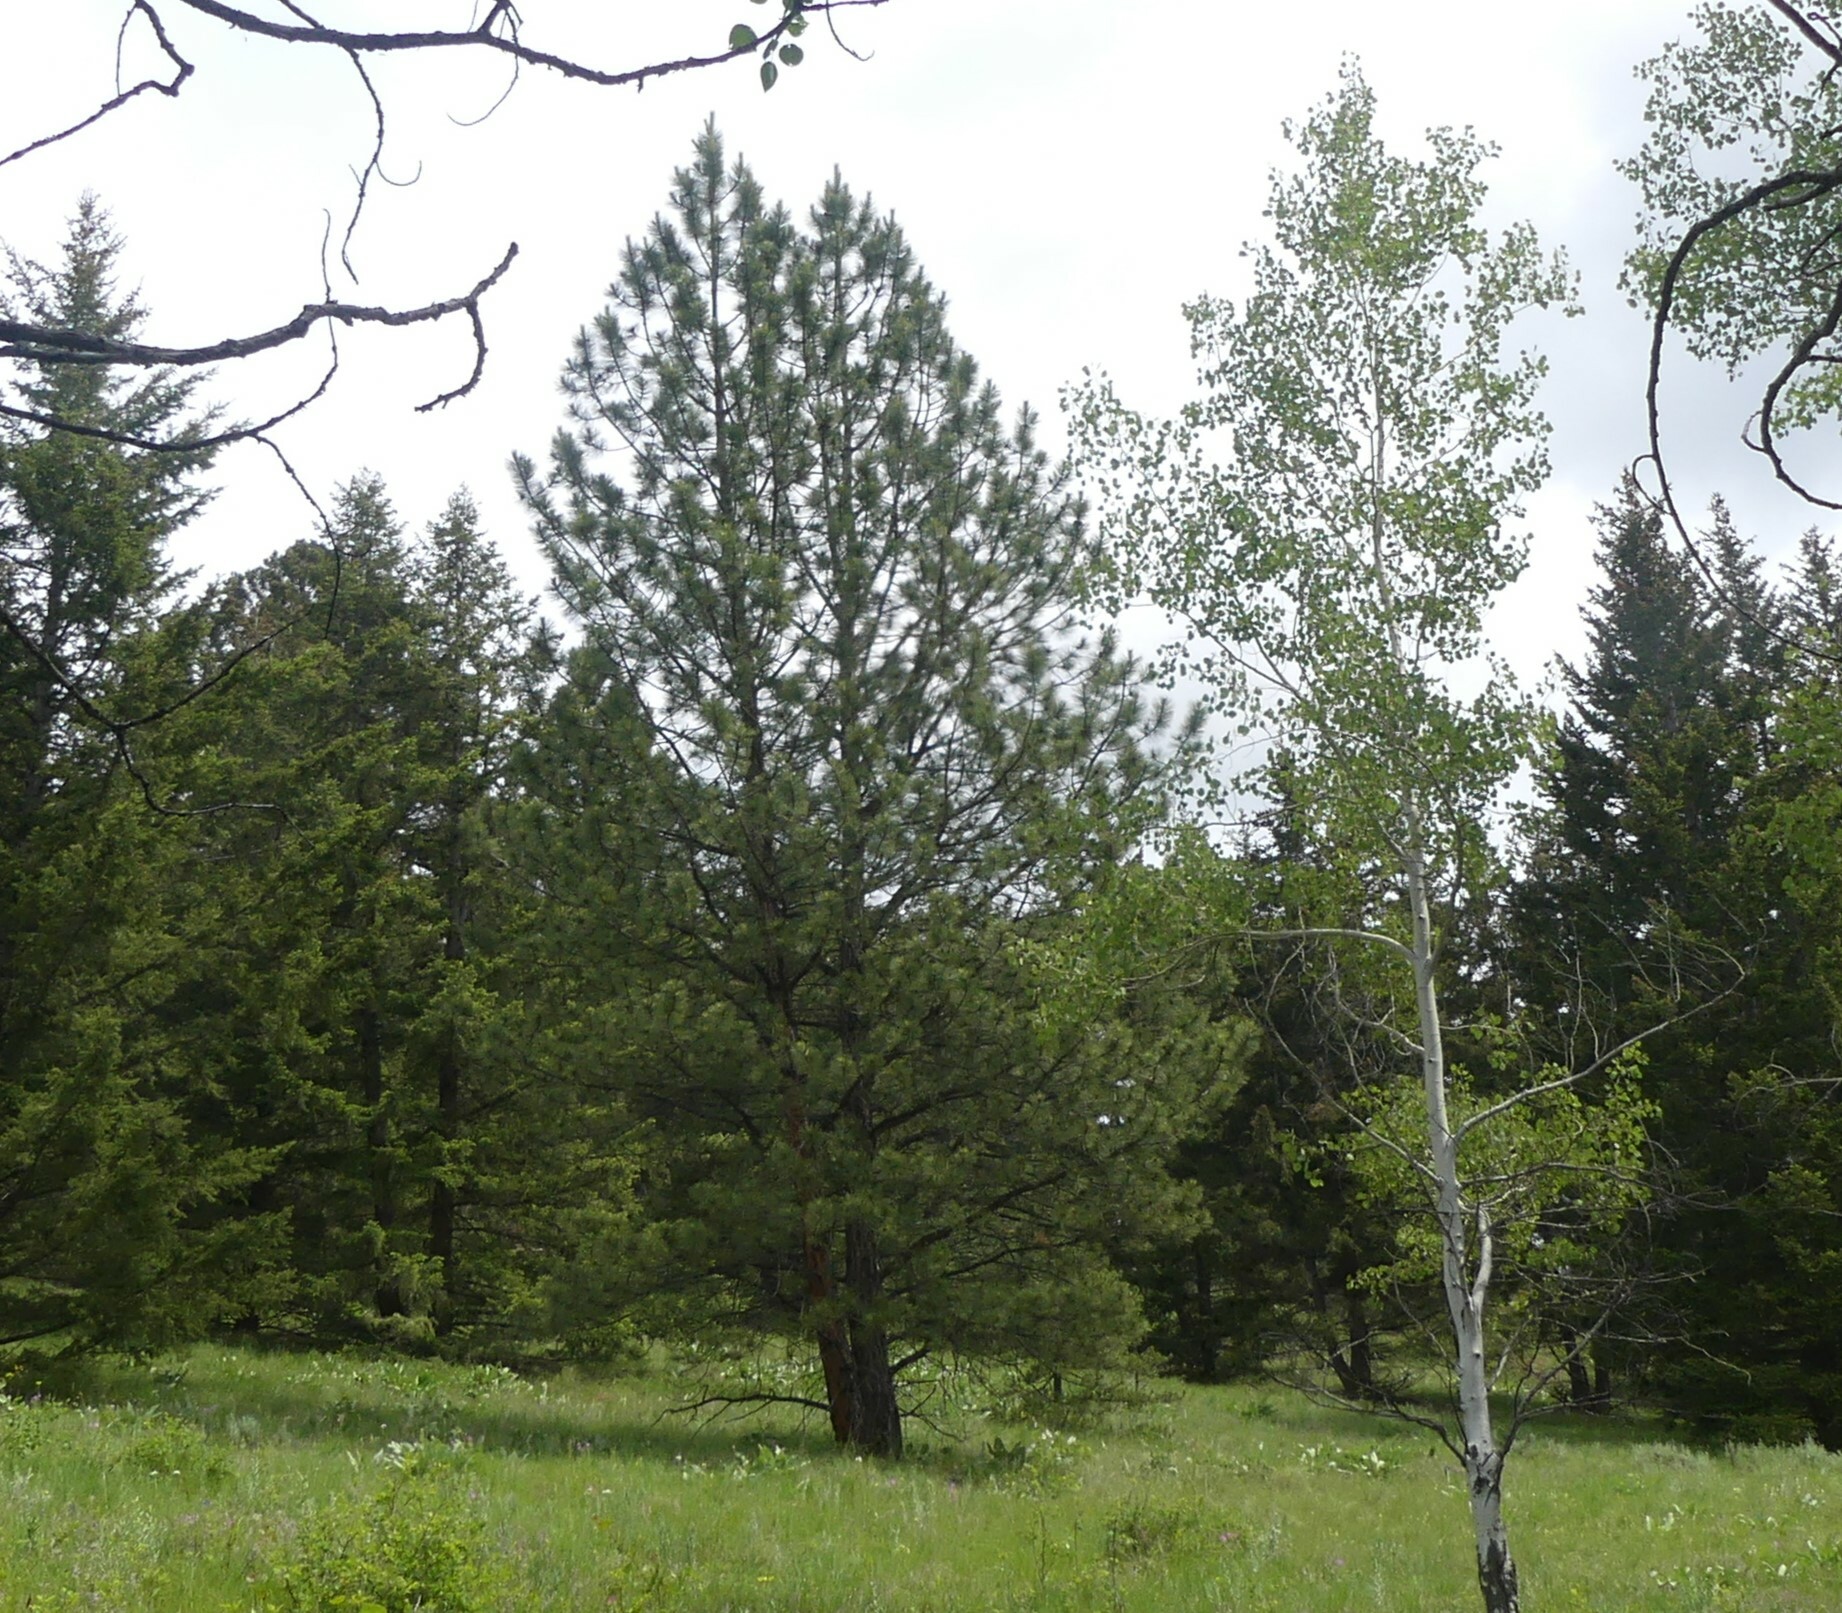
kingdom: Plantae
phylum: Tracheophyta
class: Pinopsida
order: Pinales
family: Pinaceae
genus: Pinus
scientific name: Pinus ponderosa
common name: Western yellow-pine
